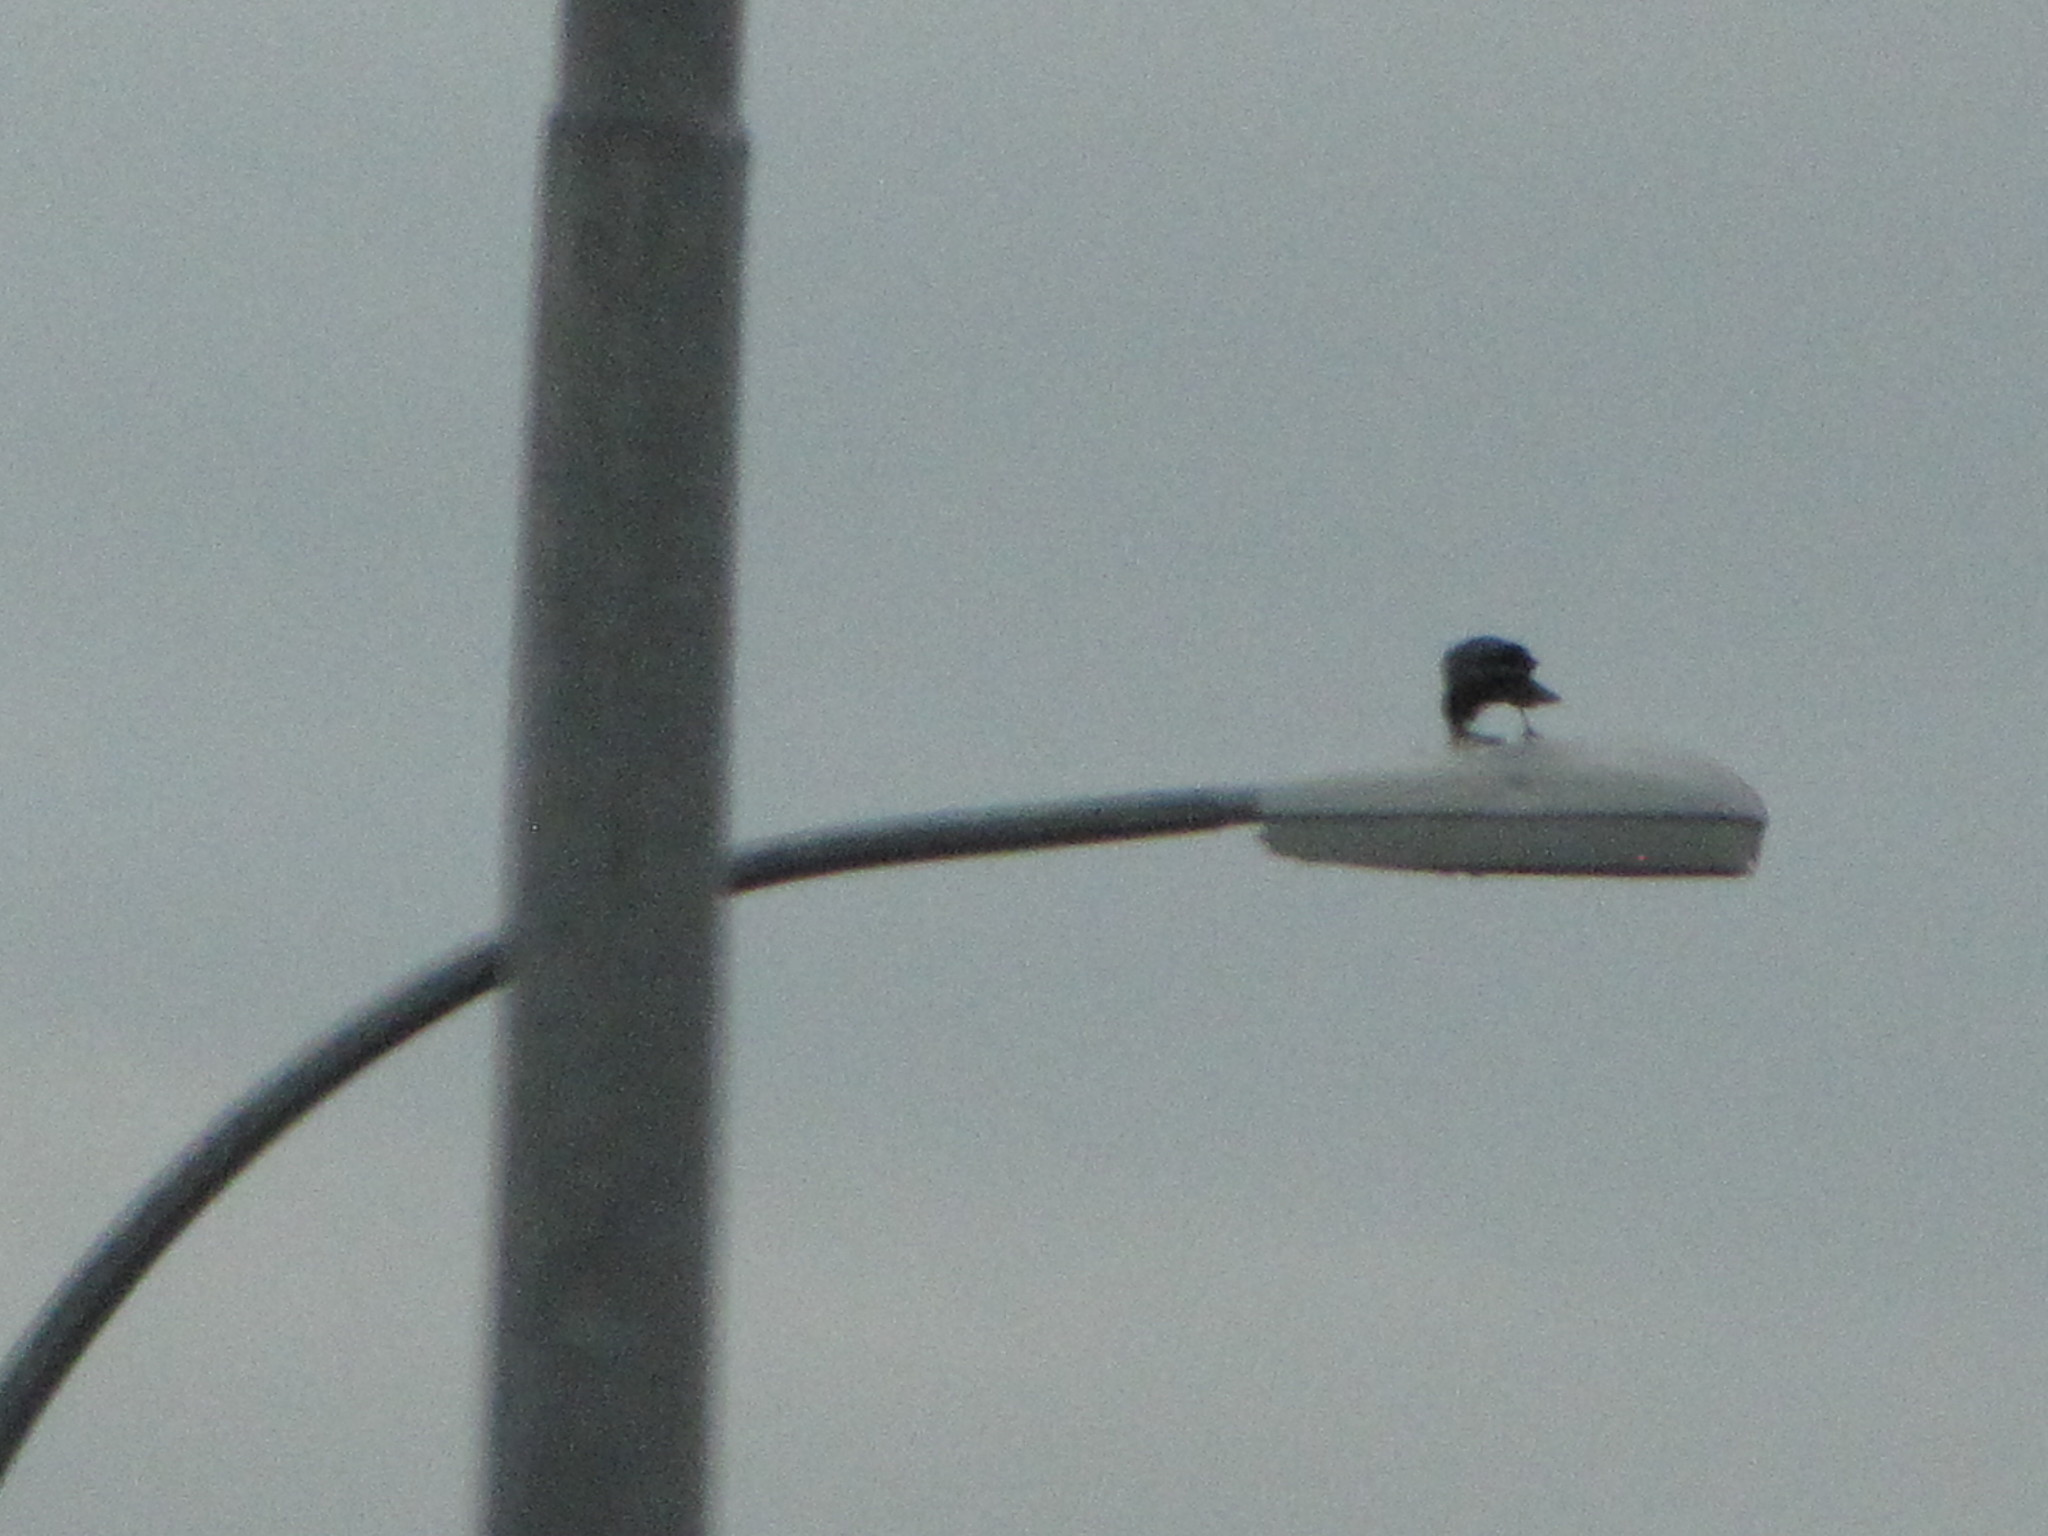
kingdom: Animalia
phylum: Chordata
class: Aves
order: Passeriformes
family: Corvidae
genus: Corvus
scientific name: Corvus brachyrhynchos
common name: American crow
